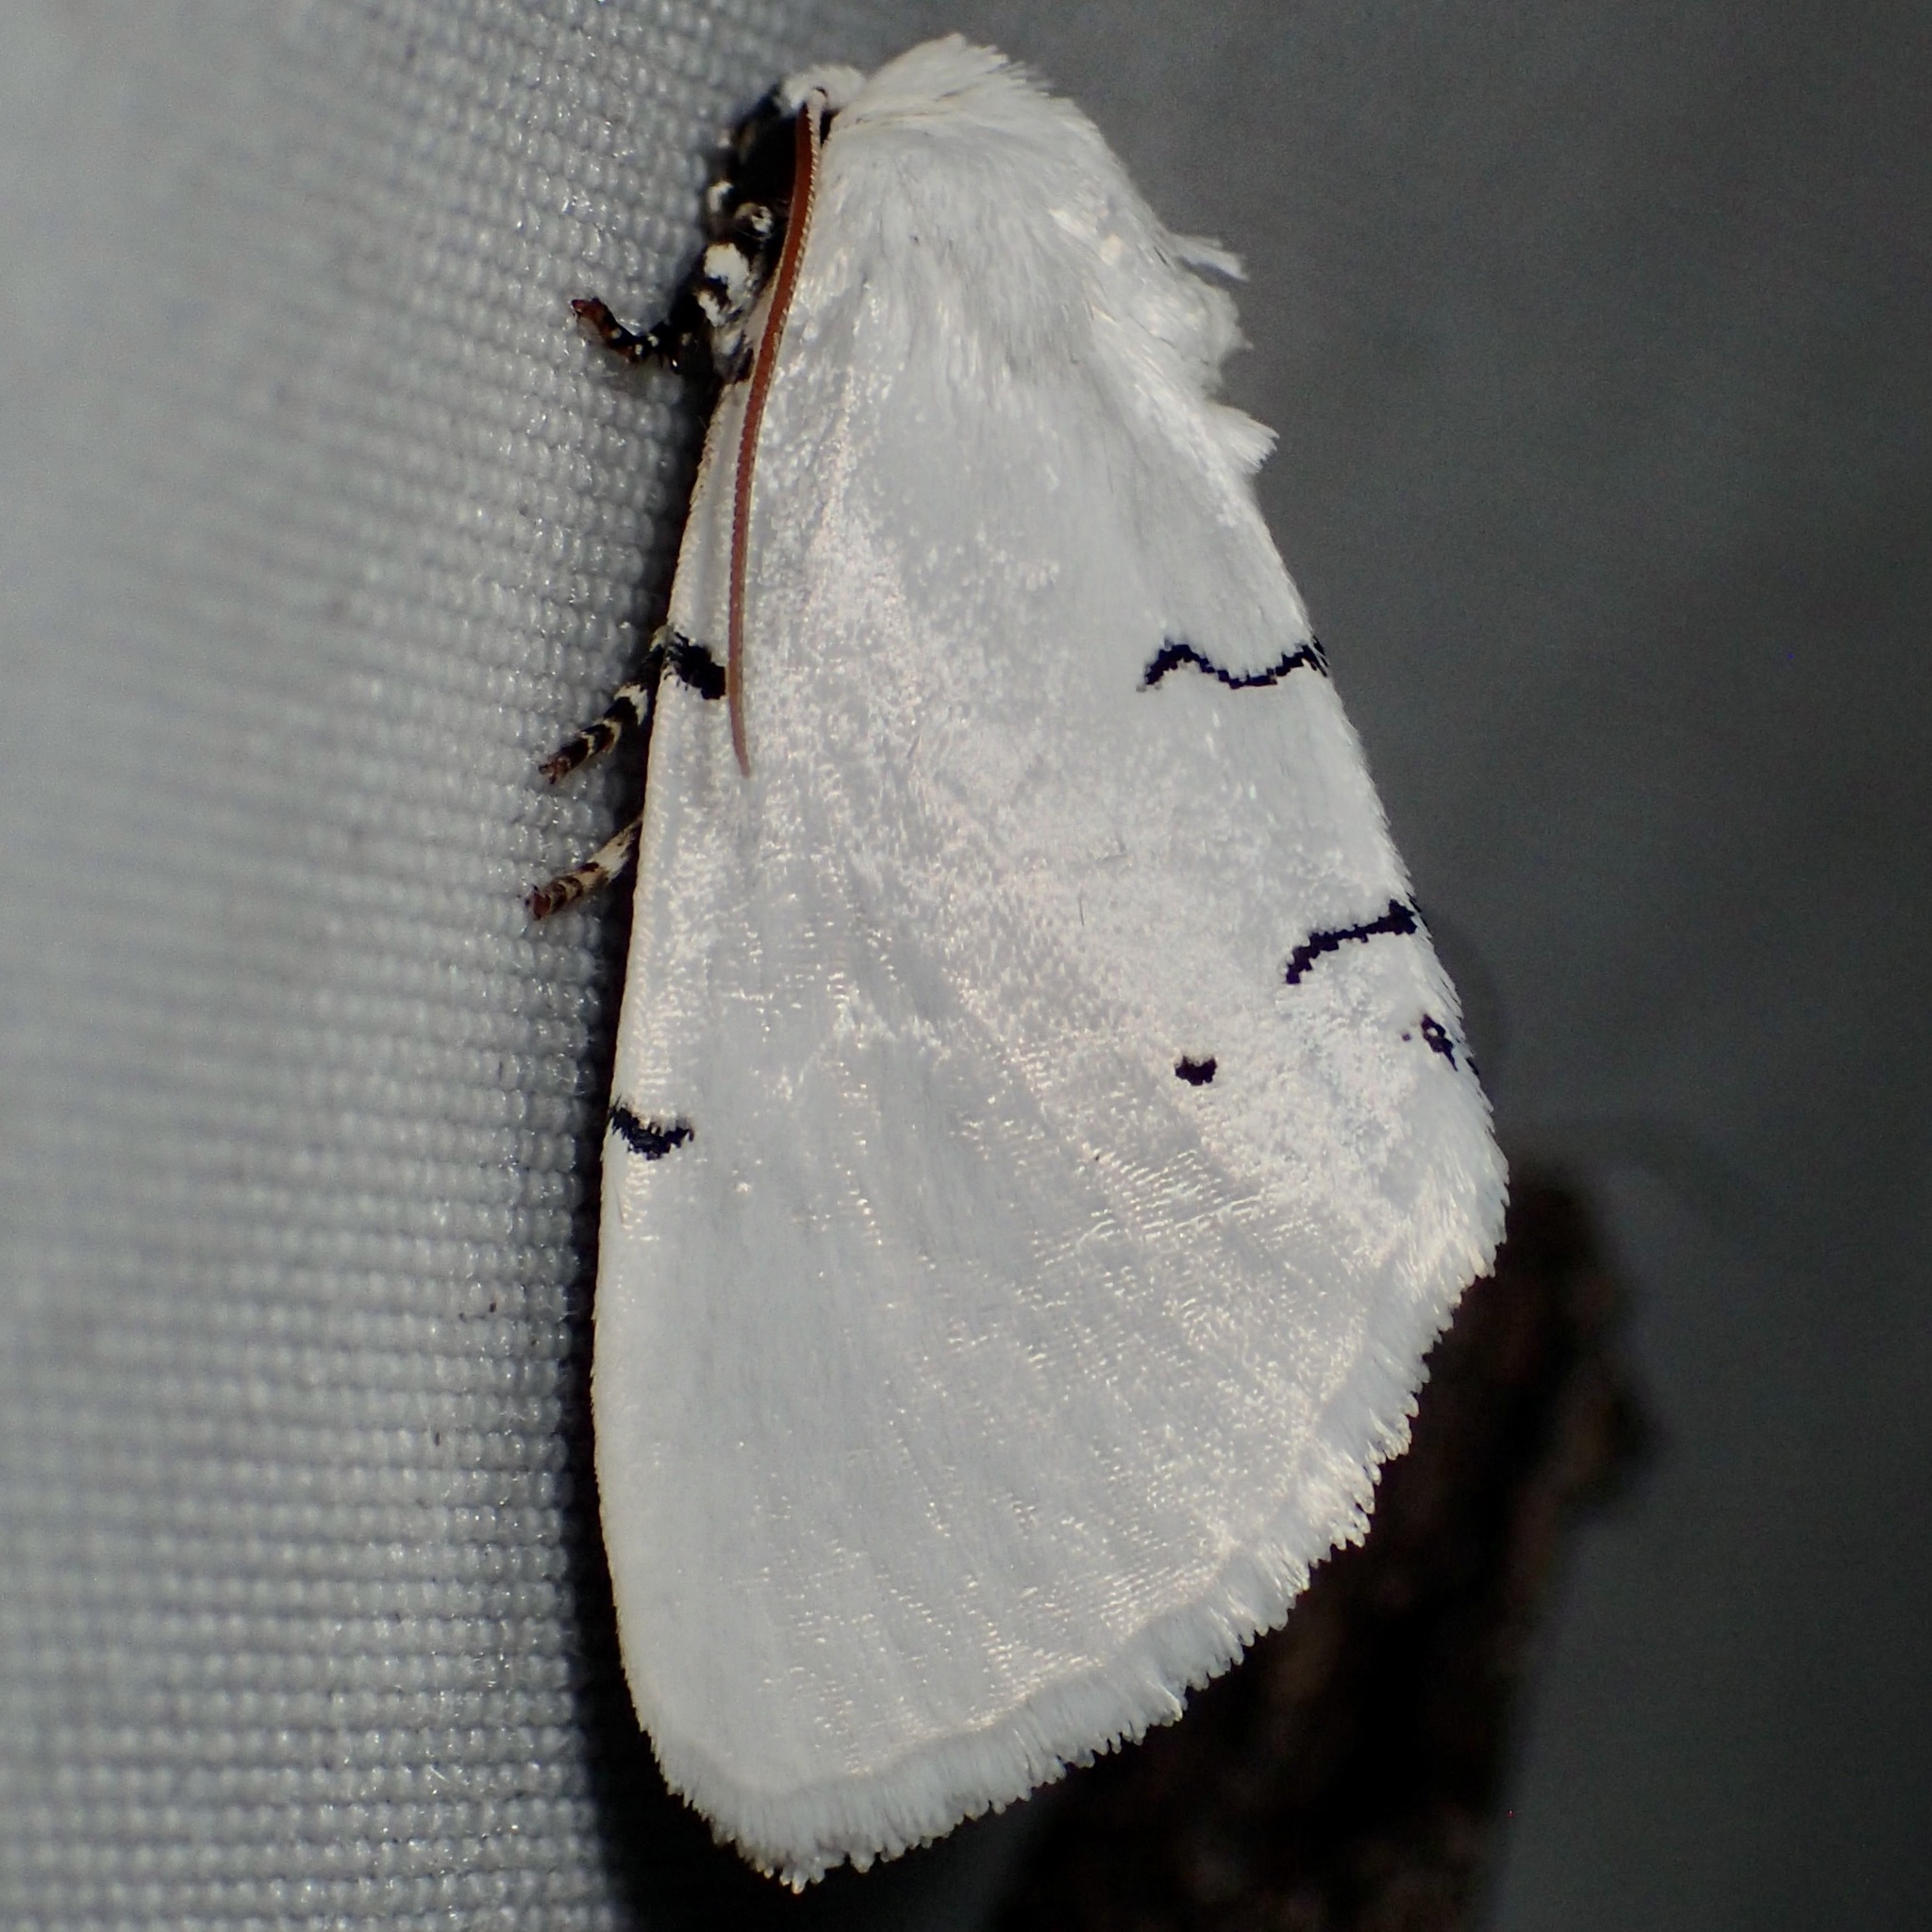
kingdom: Animalia
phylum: Arthropoda
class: Insecta
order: Lepidoptera
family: Noctuidae
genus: Hemioslaria
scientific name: Hemioslaria pima
